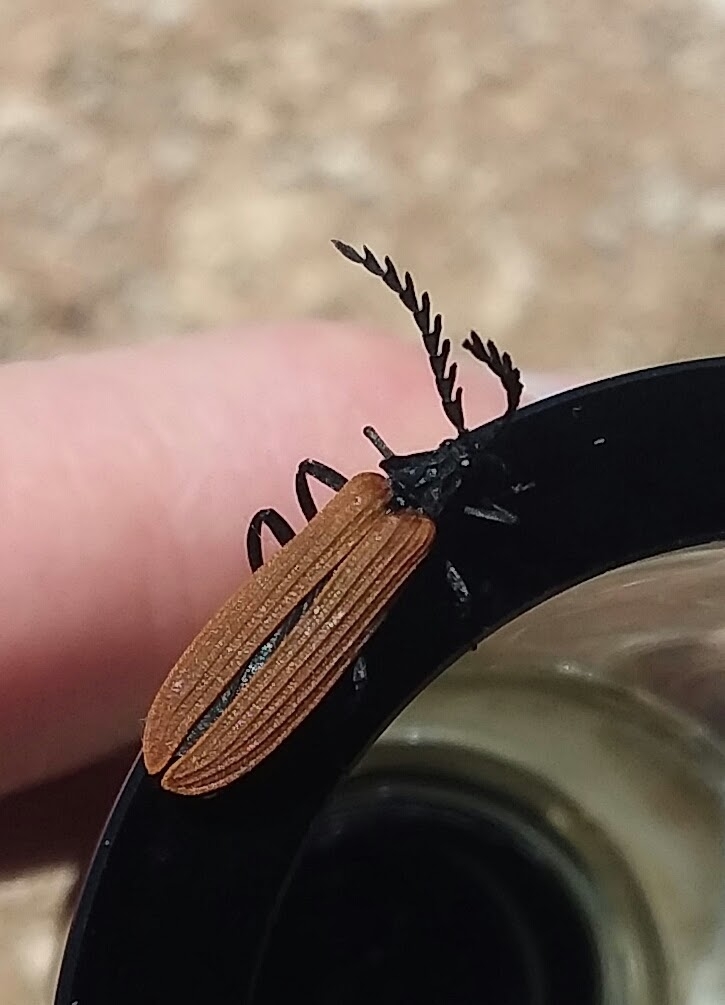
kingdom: Animalia
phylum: Arthropoda
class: Insecta
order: Coleoptera
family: Lycidae
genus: Porrostoma
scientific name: Porrostoma rhipidium
